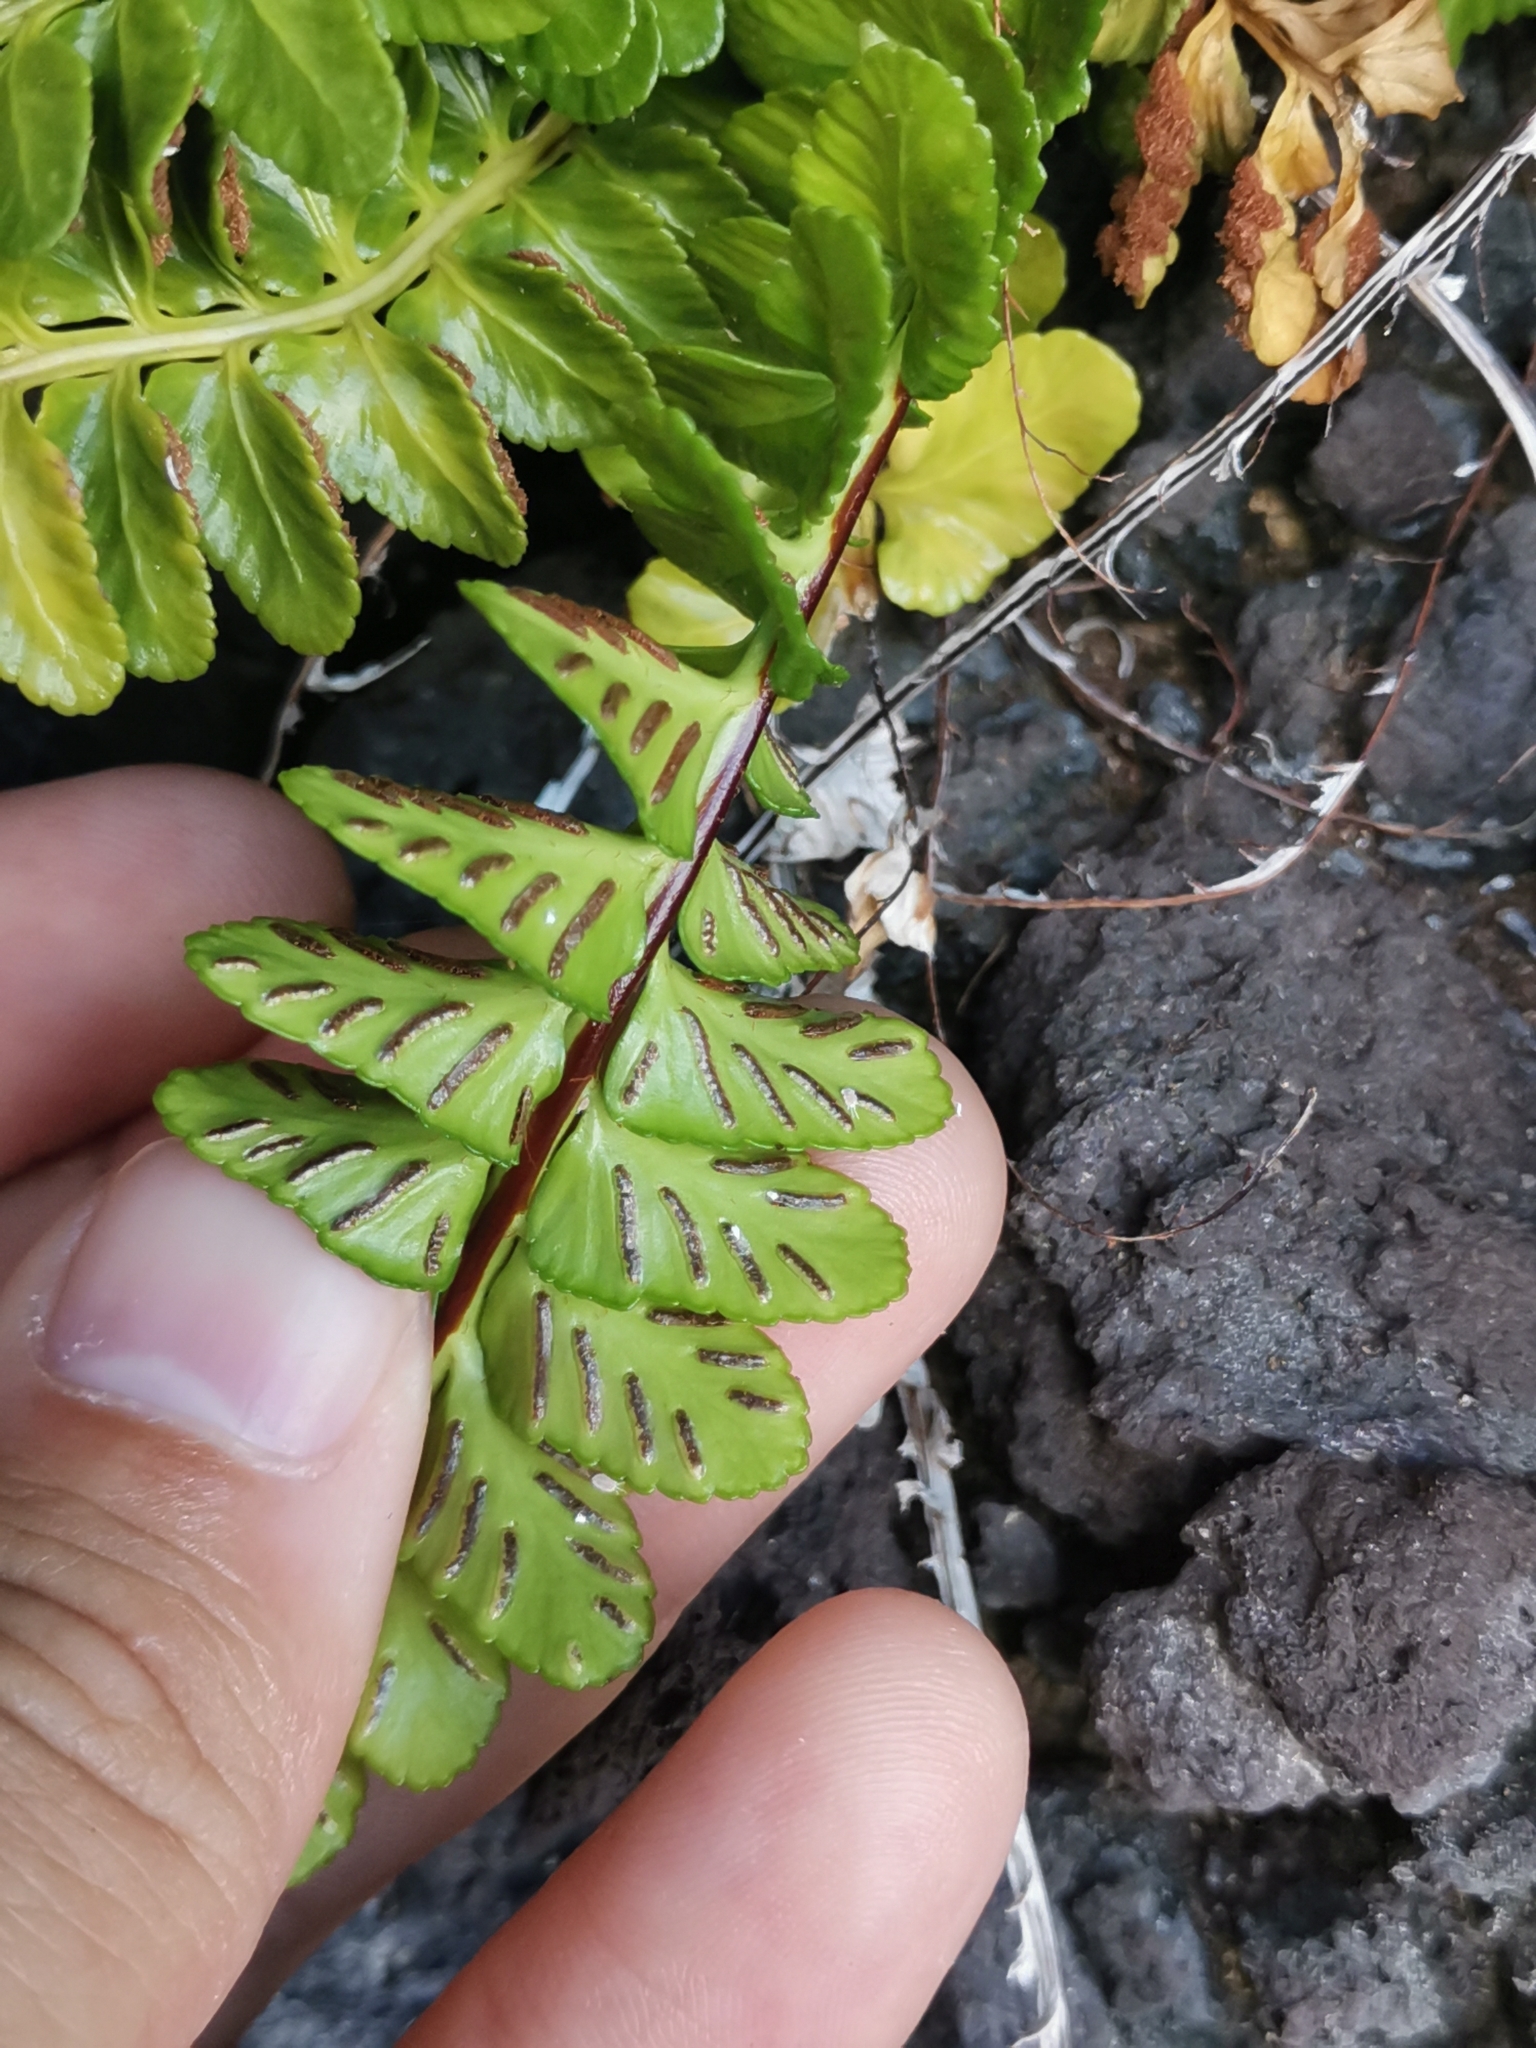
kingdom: Plantae
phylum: Tracheophyta
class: Polypodiopsida
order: Polypodiales
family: Aspleniaceae
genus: Asplenium
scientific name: Asplenium marinum
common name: Sea spleenwort
